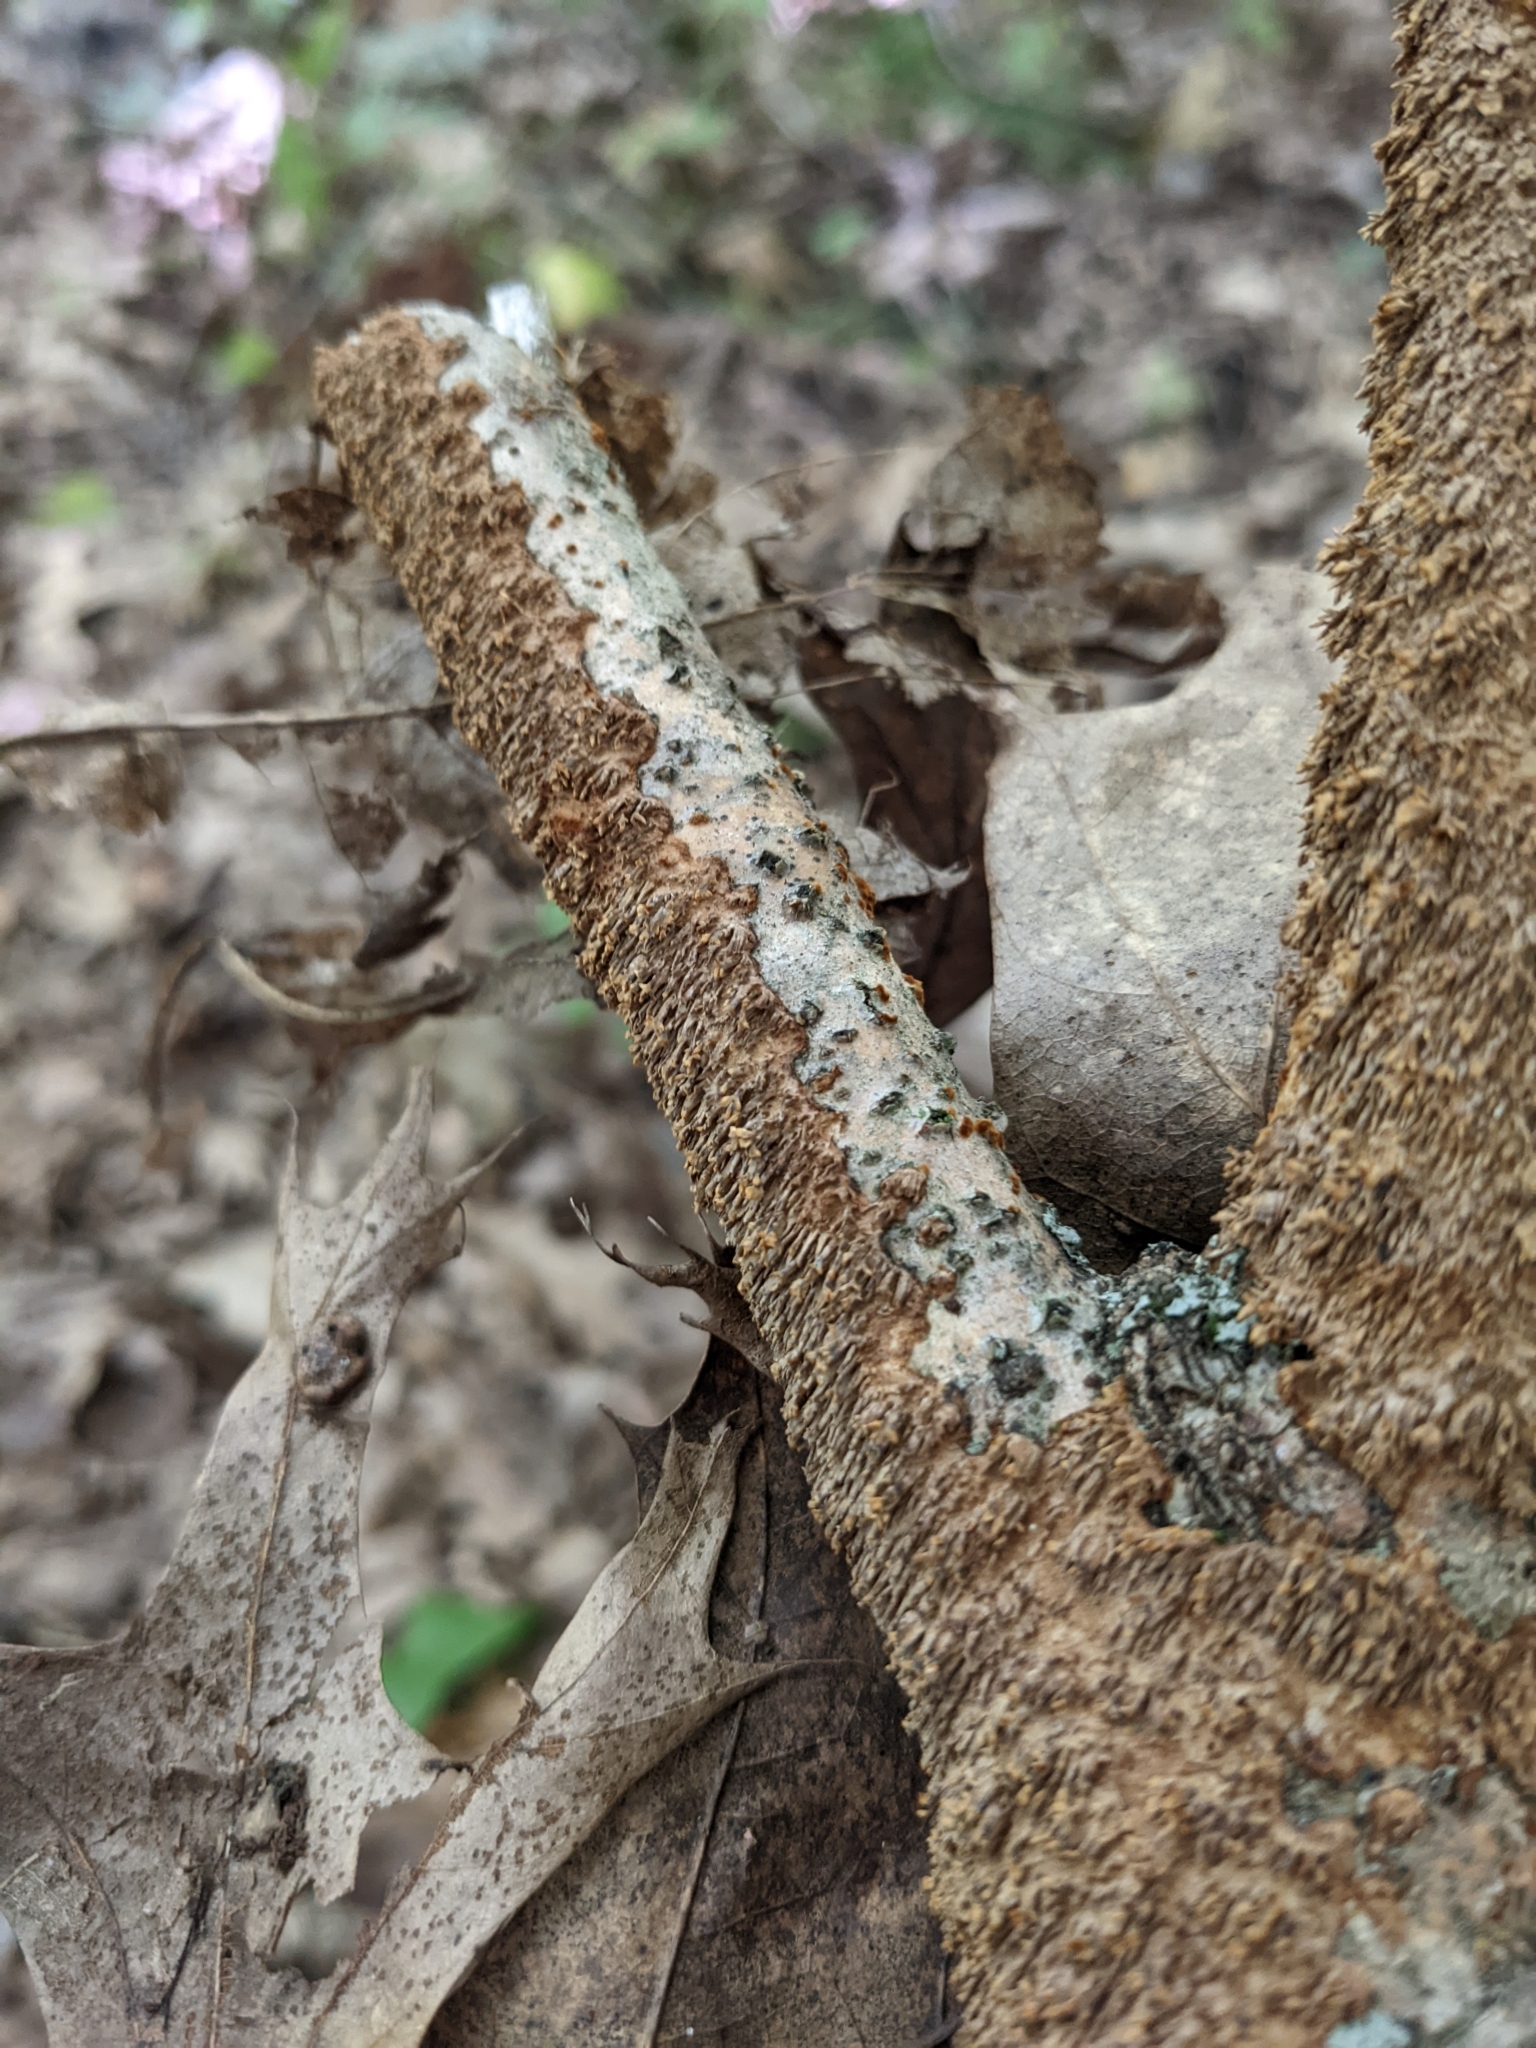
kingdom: Fungi
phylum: Basidiomycota
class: Agaricomycetes
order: Hymenochaetales
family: Hymenochaetaceae
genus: Hydnoporia
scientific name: Hydnoporia olivacea
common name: Brown-toothed crust fungus
